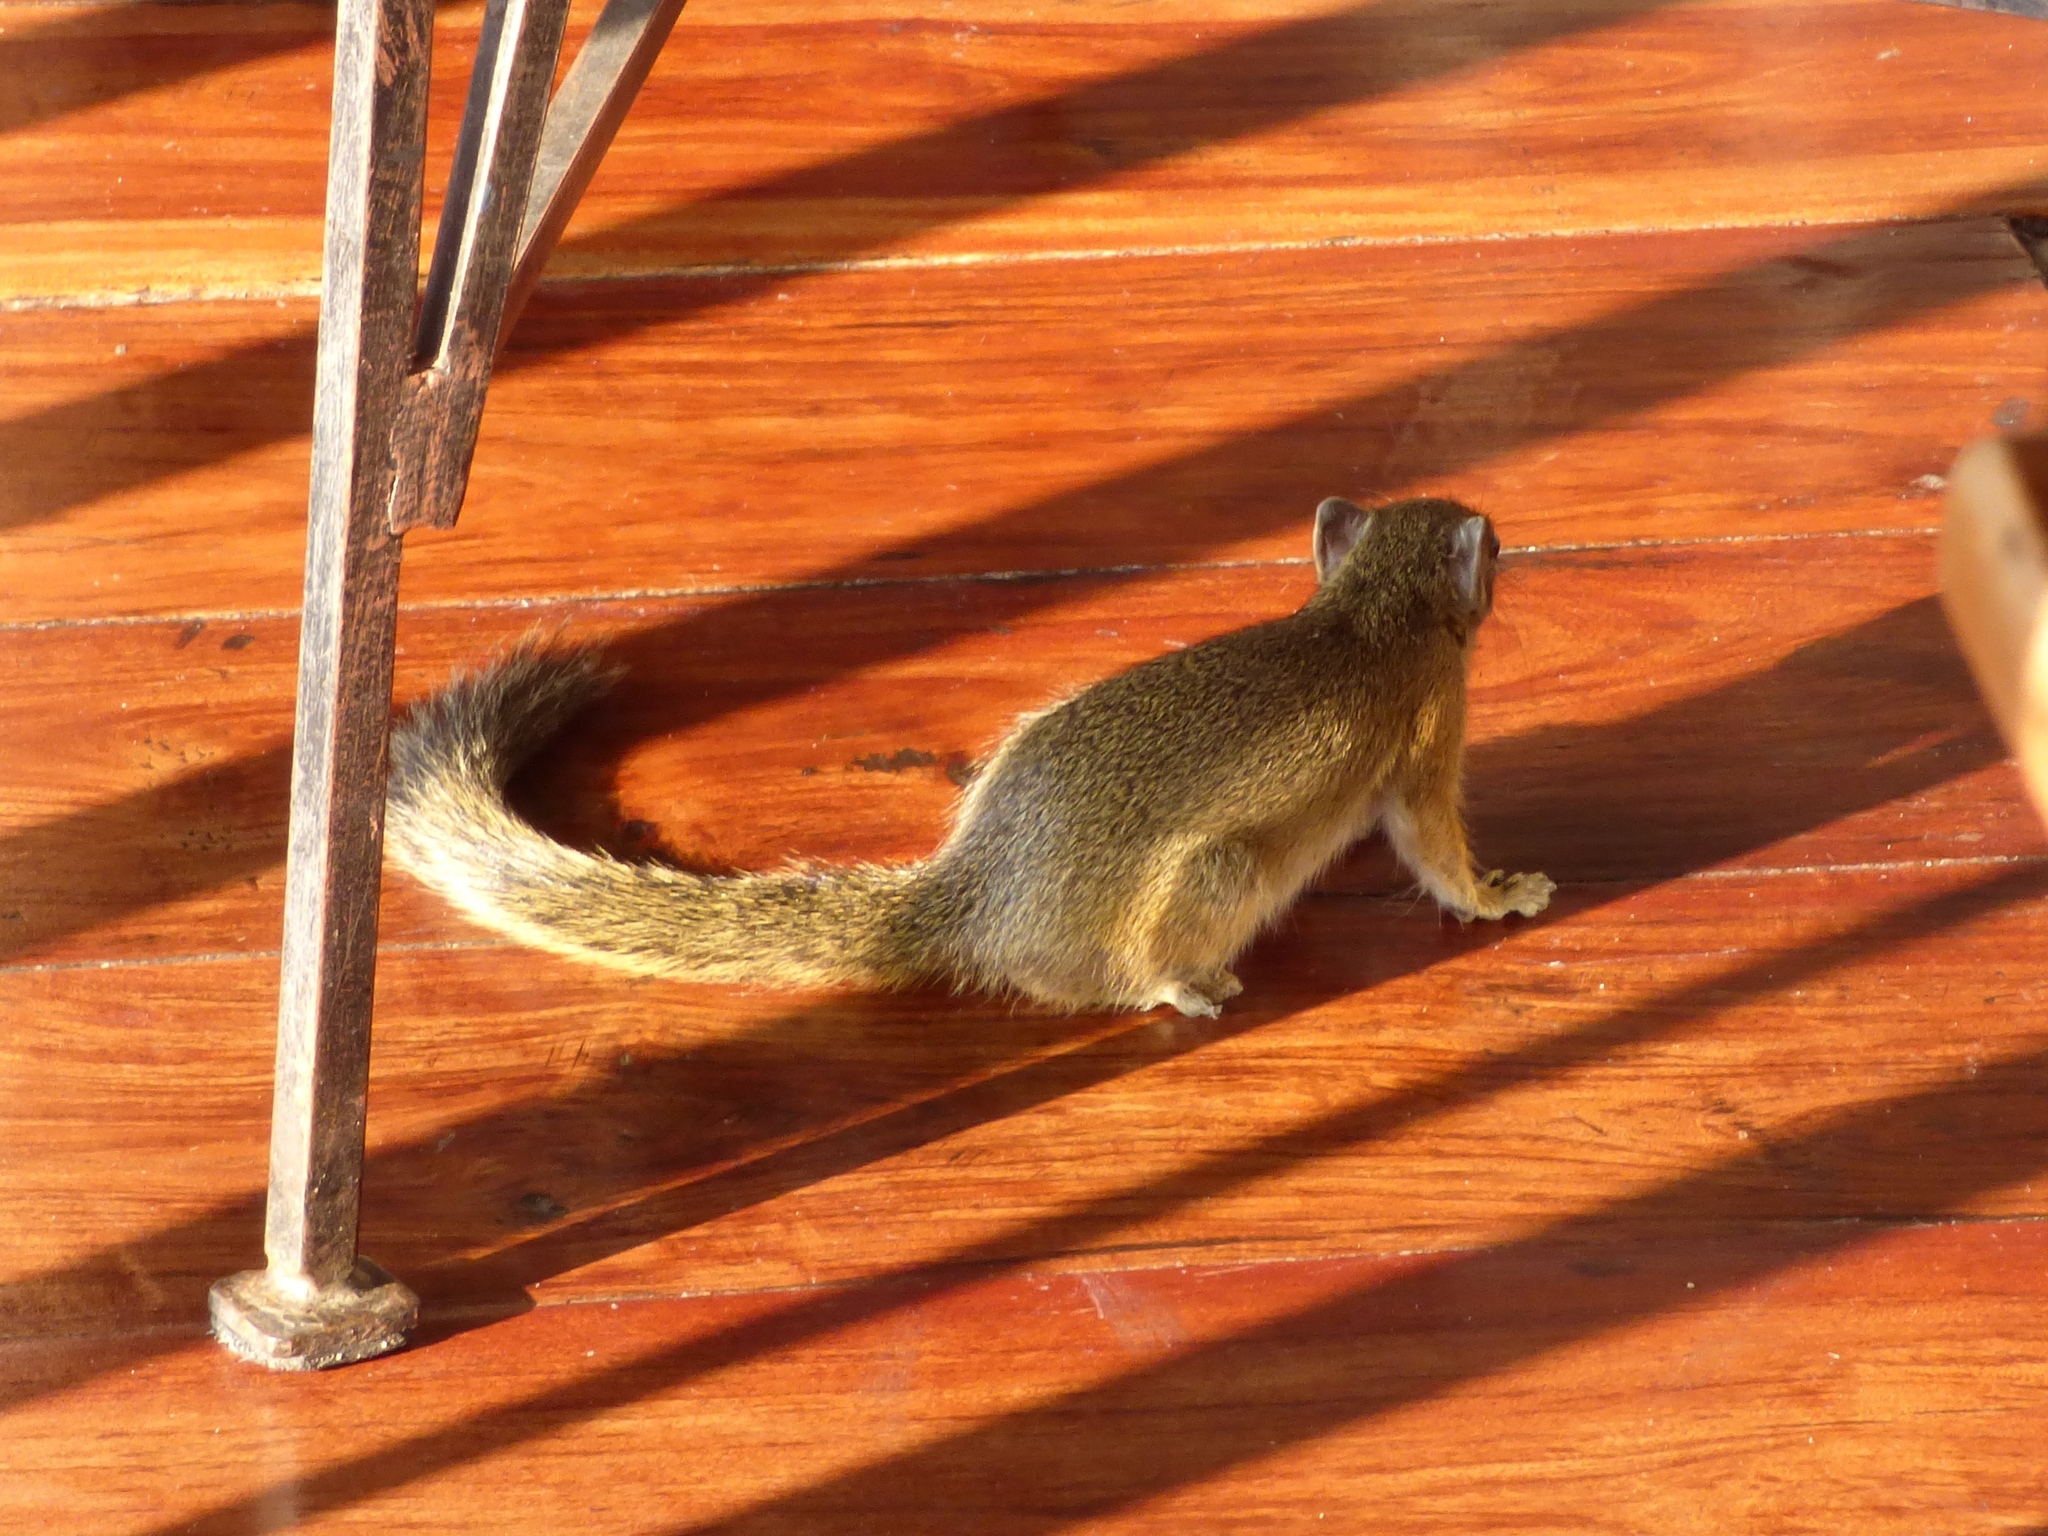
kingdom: Animalia
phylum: Chordata
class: Mammalia
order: Rodentia
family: Sciuridae
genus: Paraxerus
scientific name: Paraxerus cepapi
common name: Smith's bush squirrel
